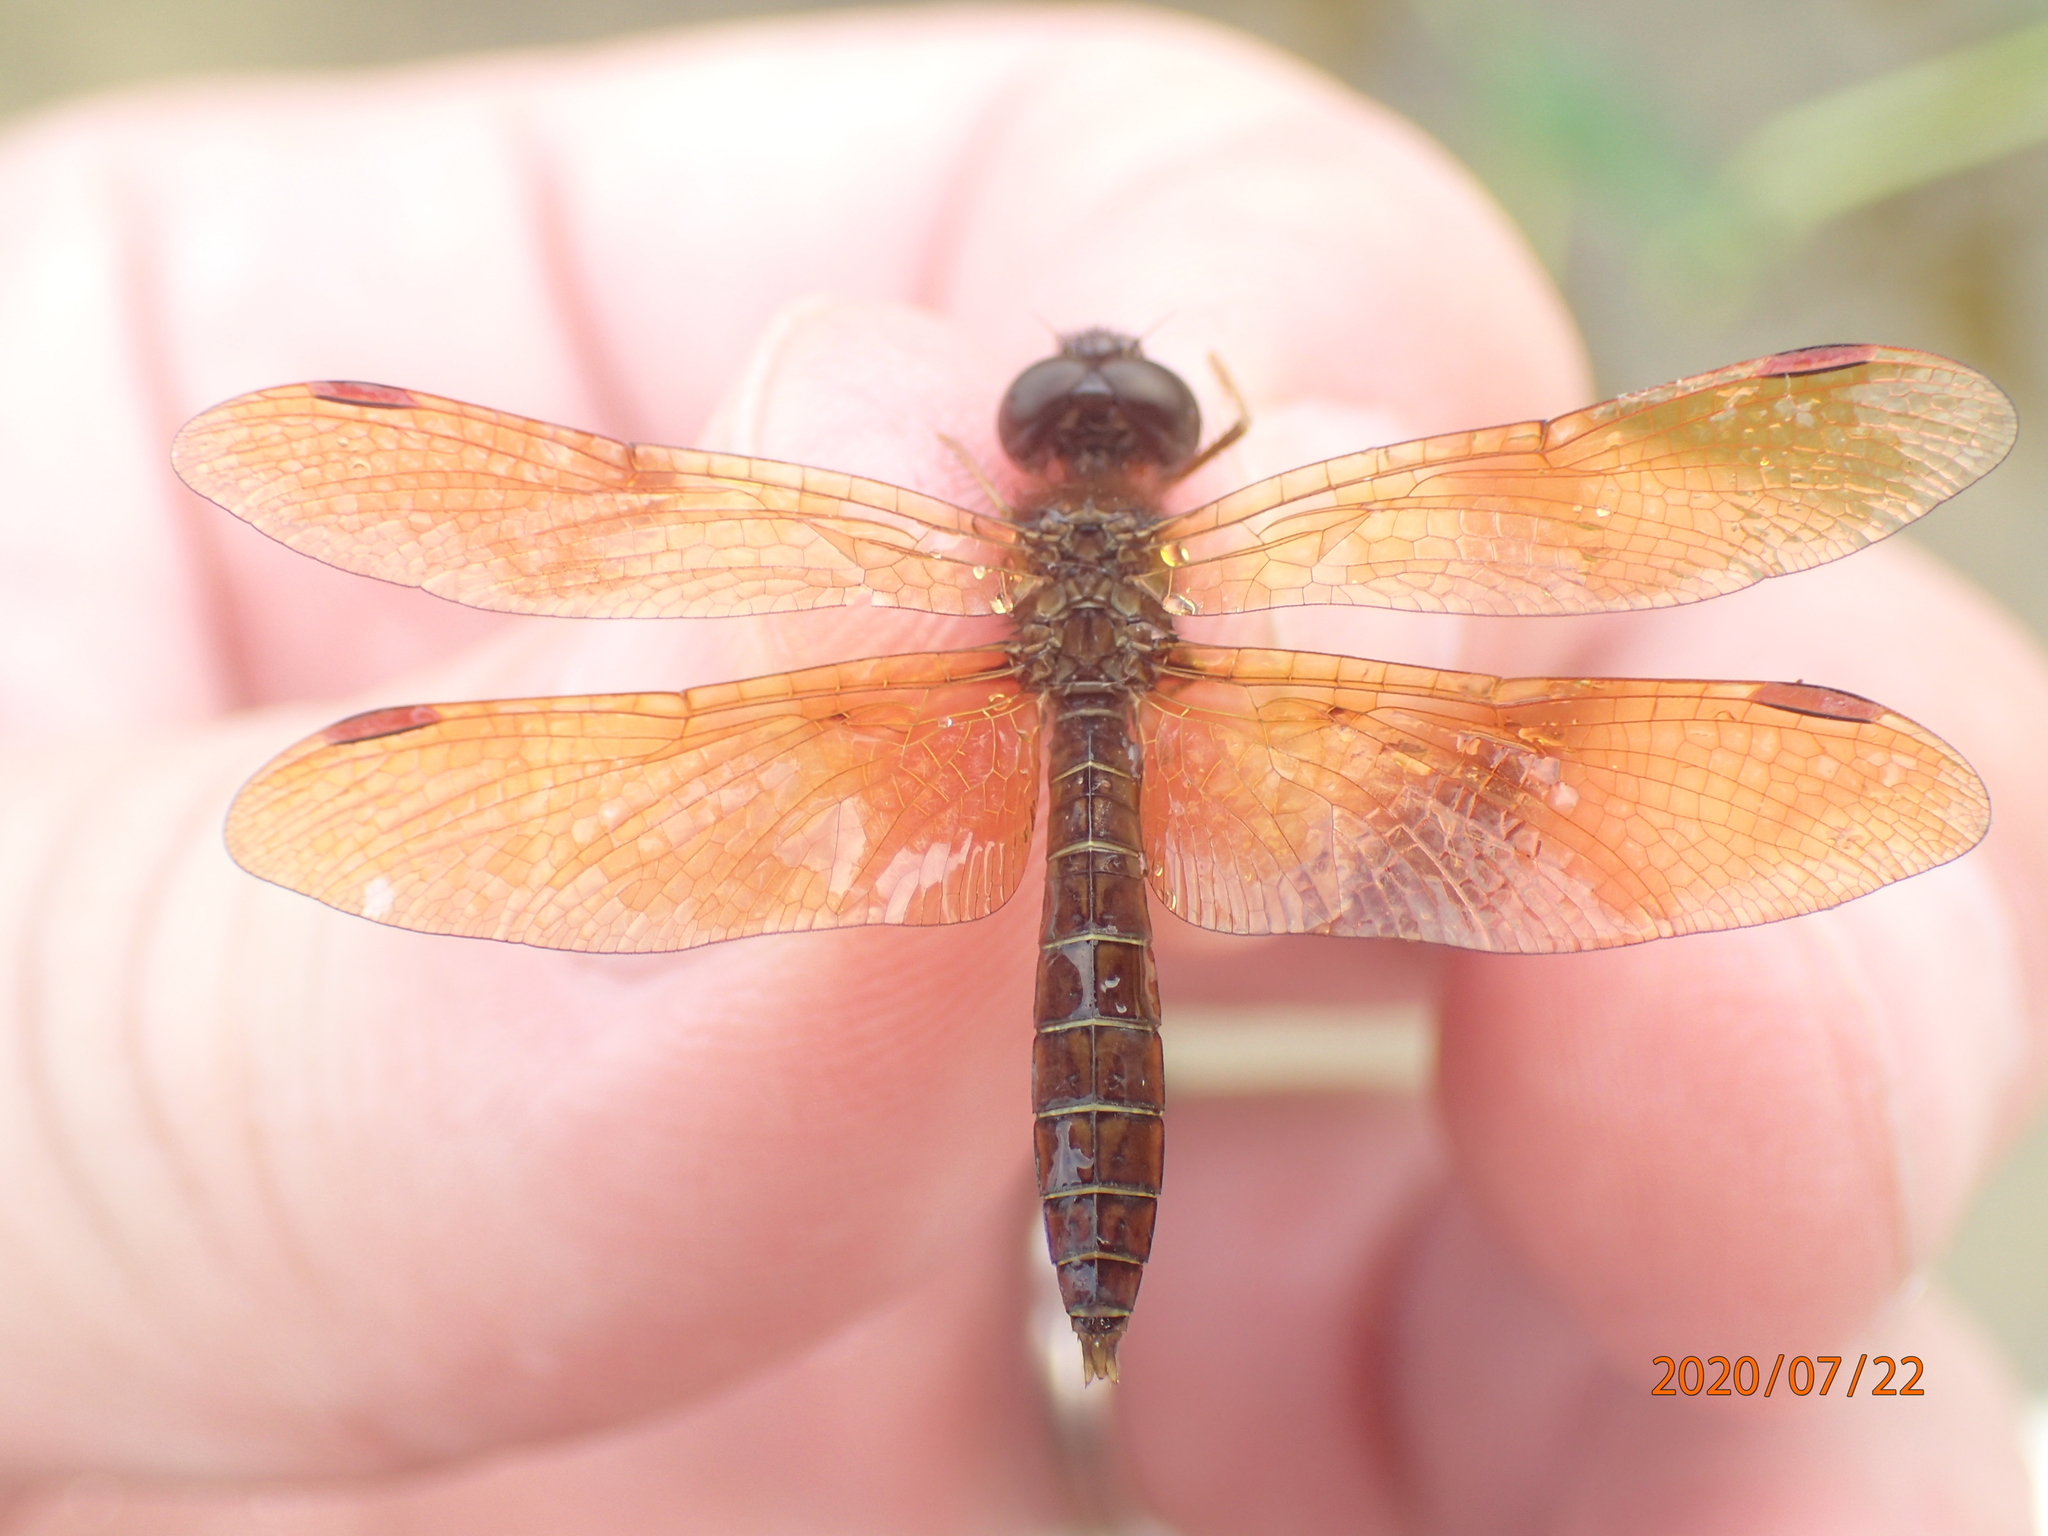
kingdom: Animalia
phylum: Arthropoda
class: Insecta
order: Odonata
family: Libellulidae
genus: Perithemis
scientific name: Perithemis tenera
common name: Eastern amberwing
